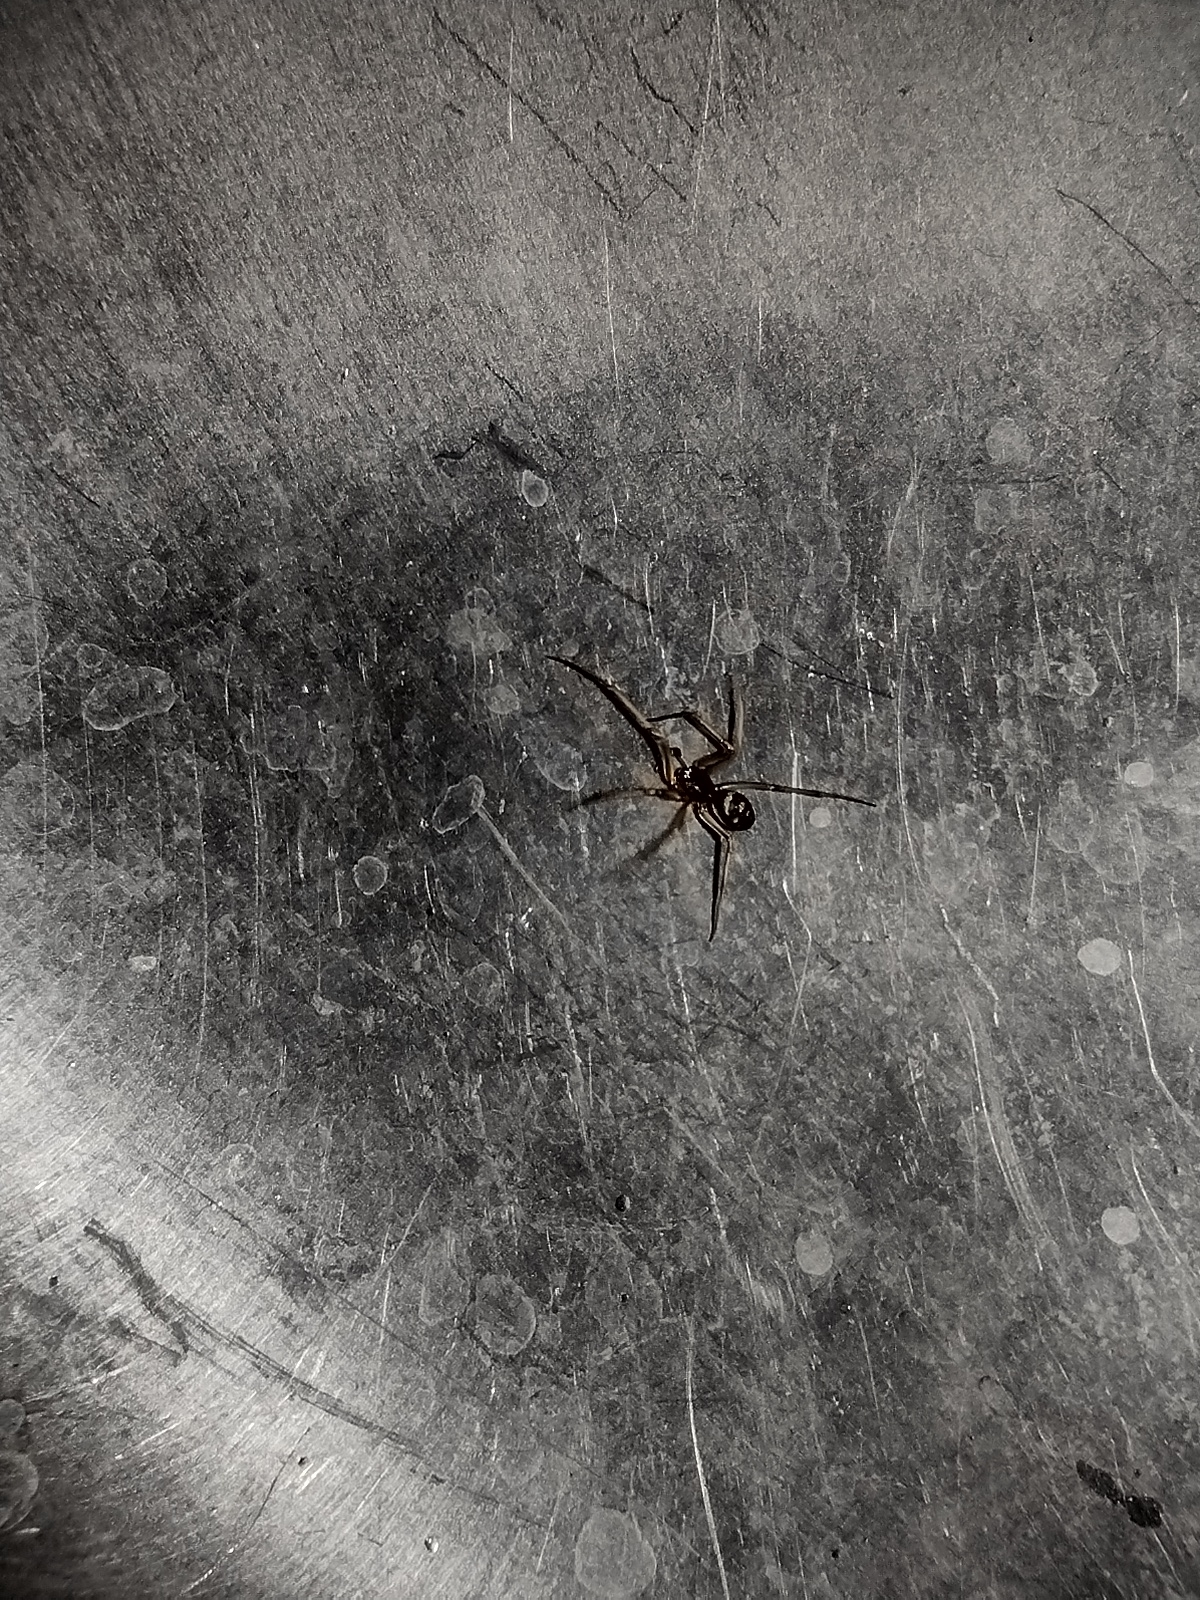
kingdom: Animalia
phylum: Arthropoda
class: Arachnida
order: Araneae
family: Theridiidae
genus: Steatoda
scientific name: Steatoda grossa
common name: False black widow
